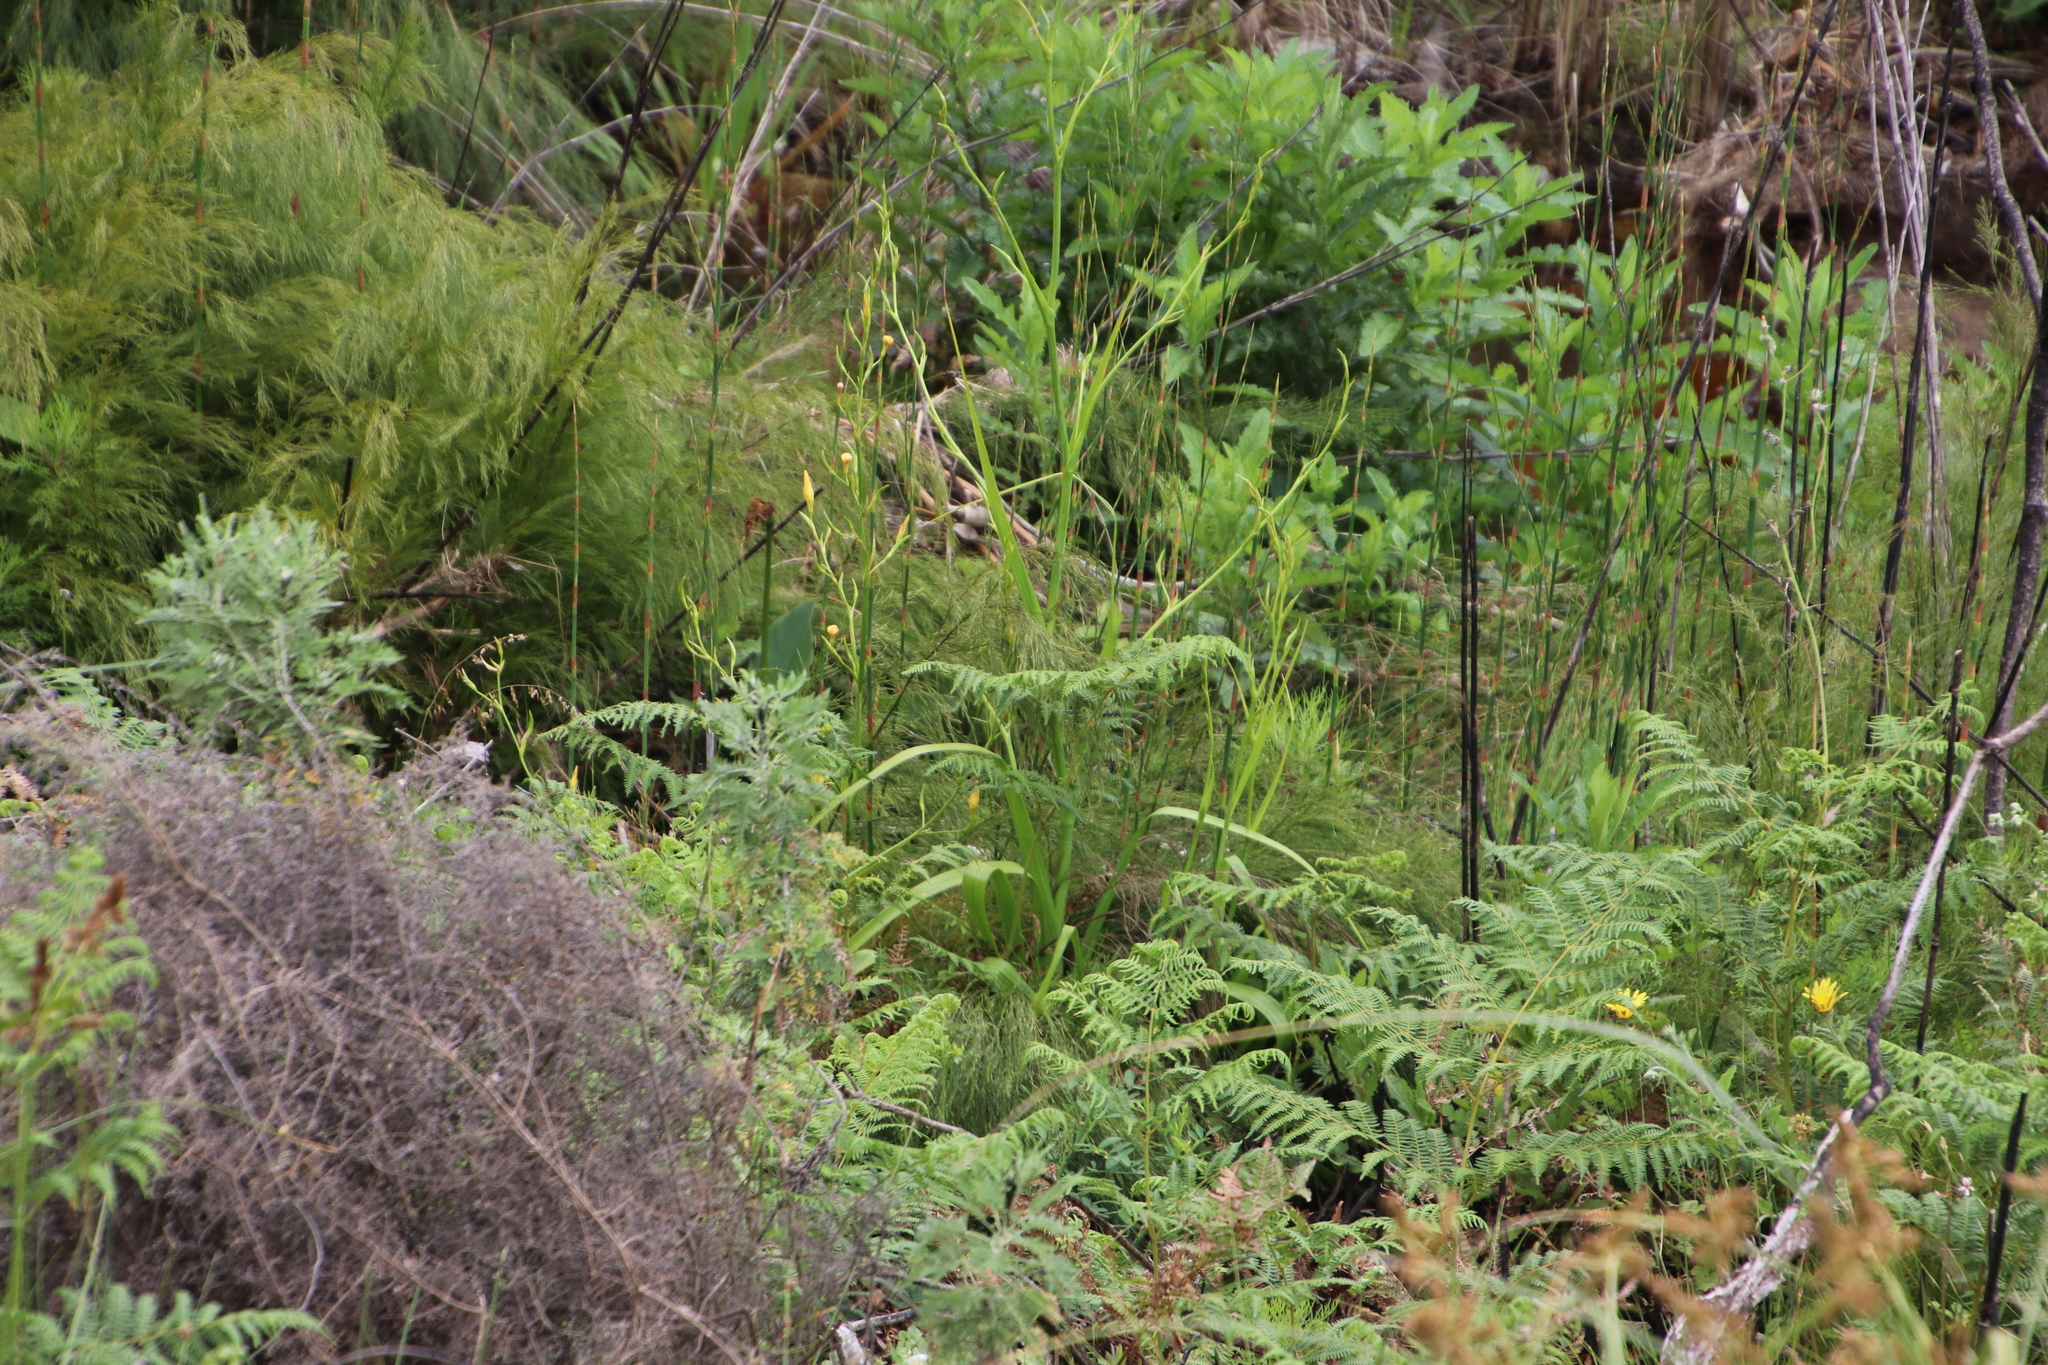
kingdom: Plantae
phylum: Tracheophyta
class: Liliopsida
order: Asparagales
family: Iridaceae
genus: Moraea
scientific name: Moraea ramosissima
